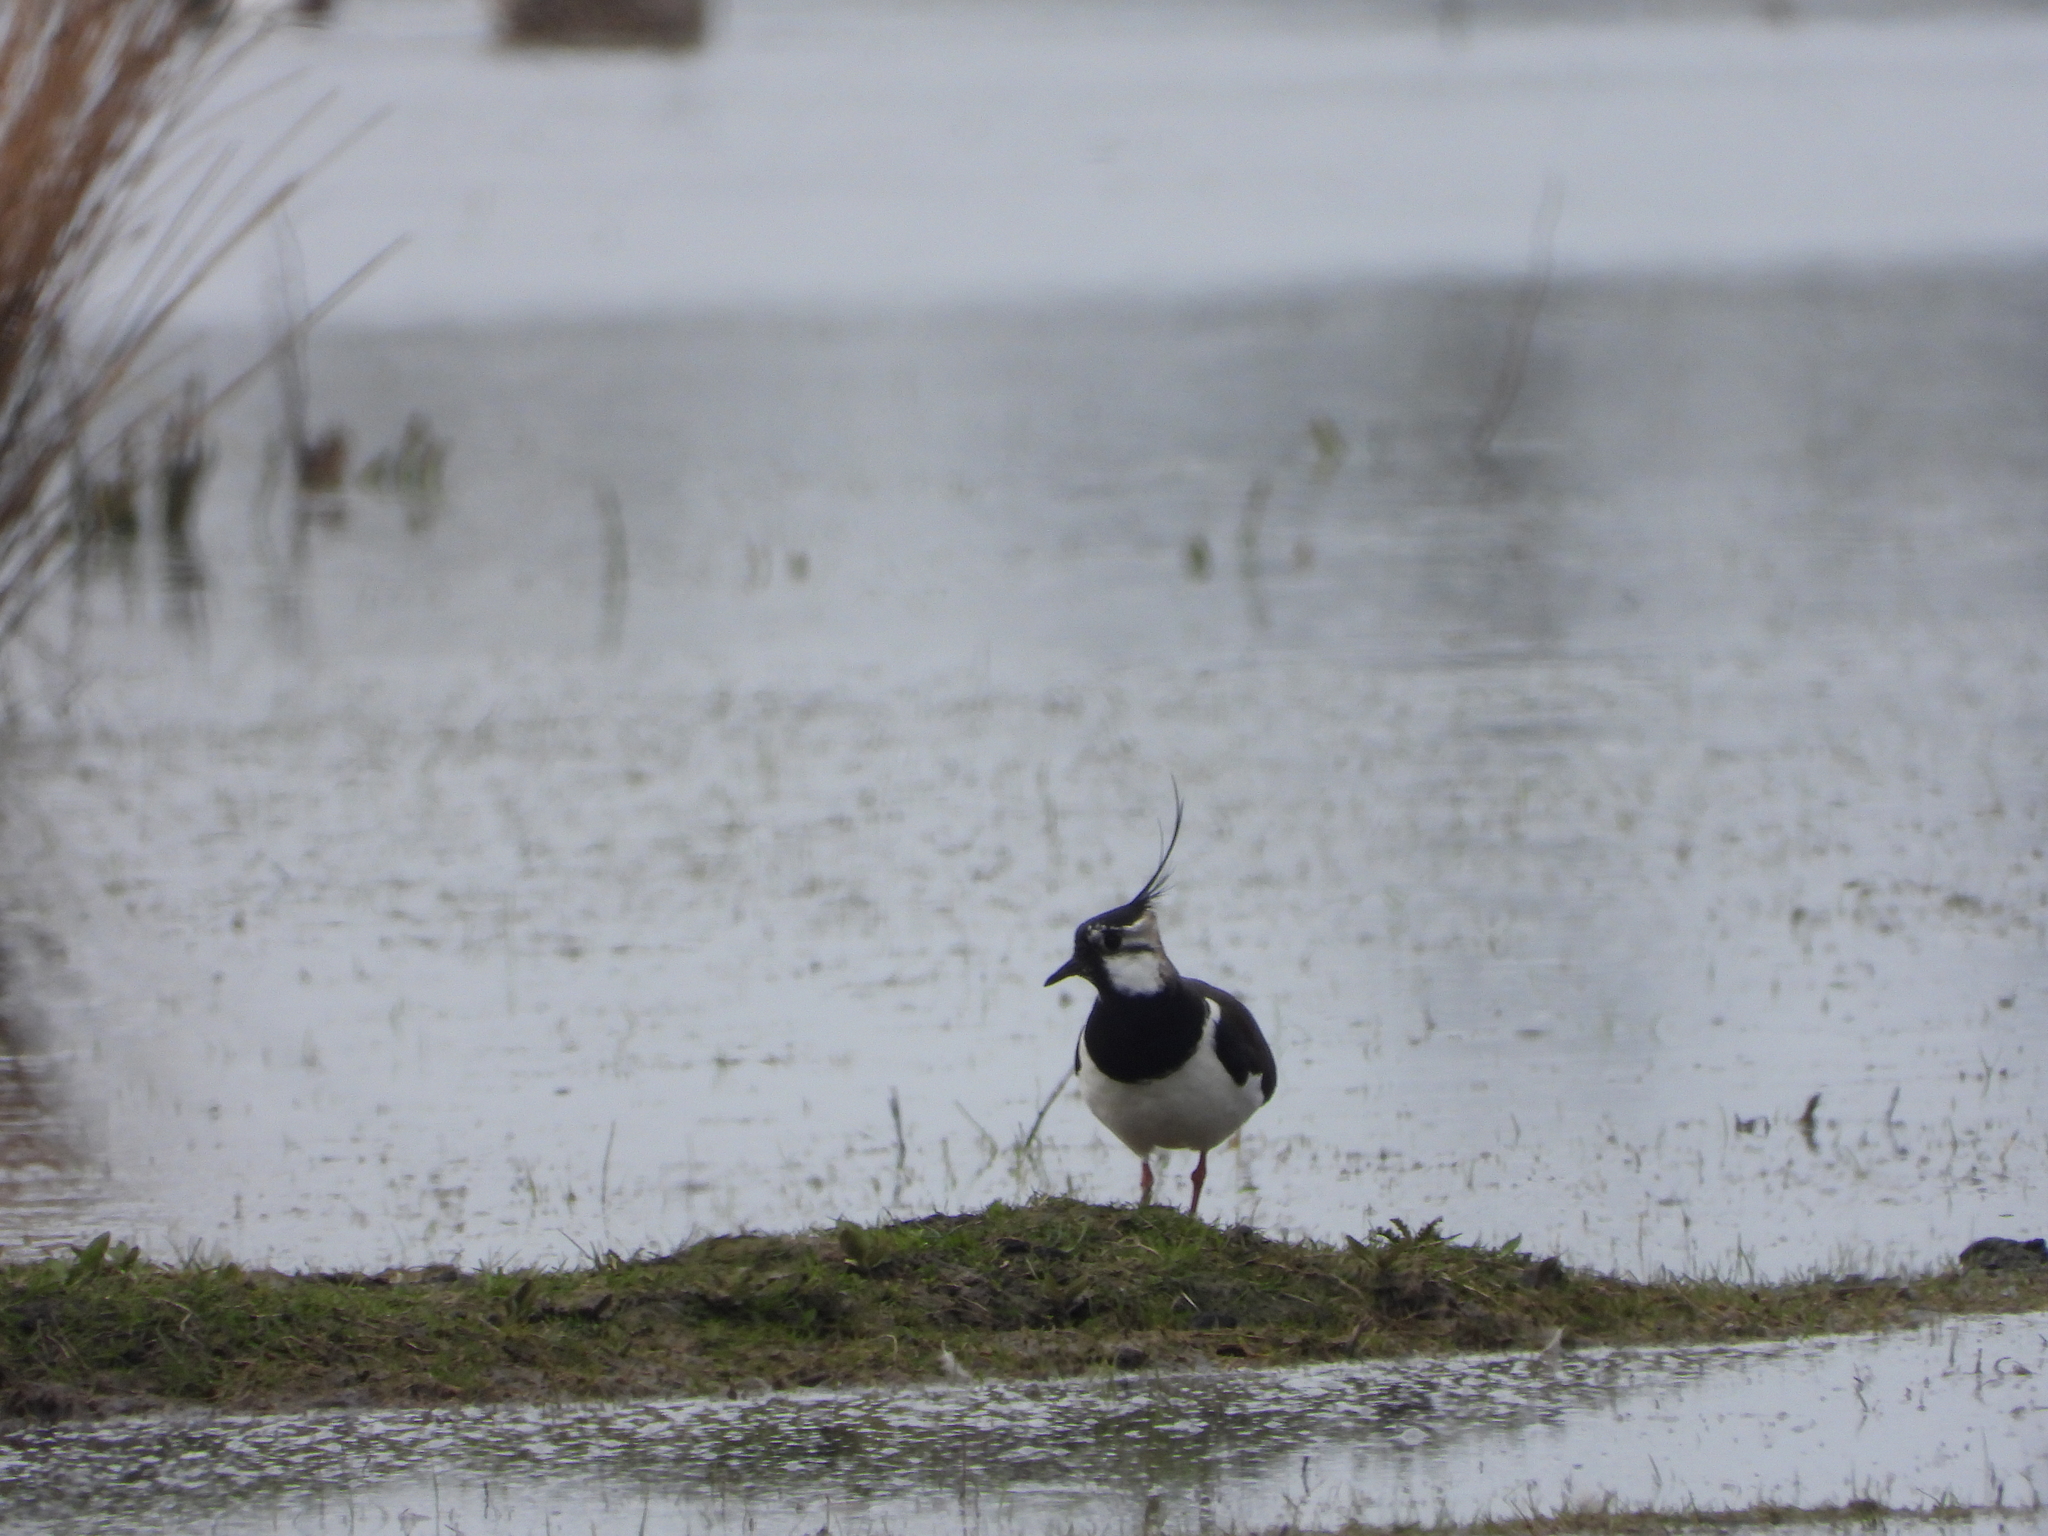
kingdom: Animalia
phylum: Chordata
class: Aves
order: Charadriiformes
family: Charadriidae
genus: Vanellus
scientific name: Vanellus vanellus
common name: Northern lapwing
